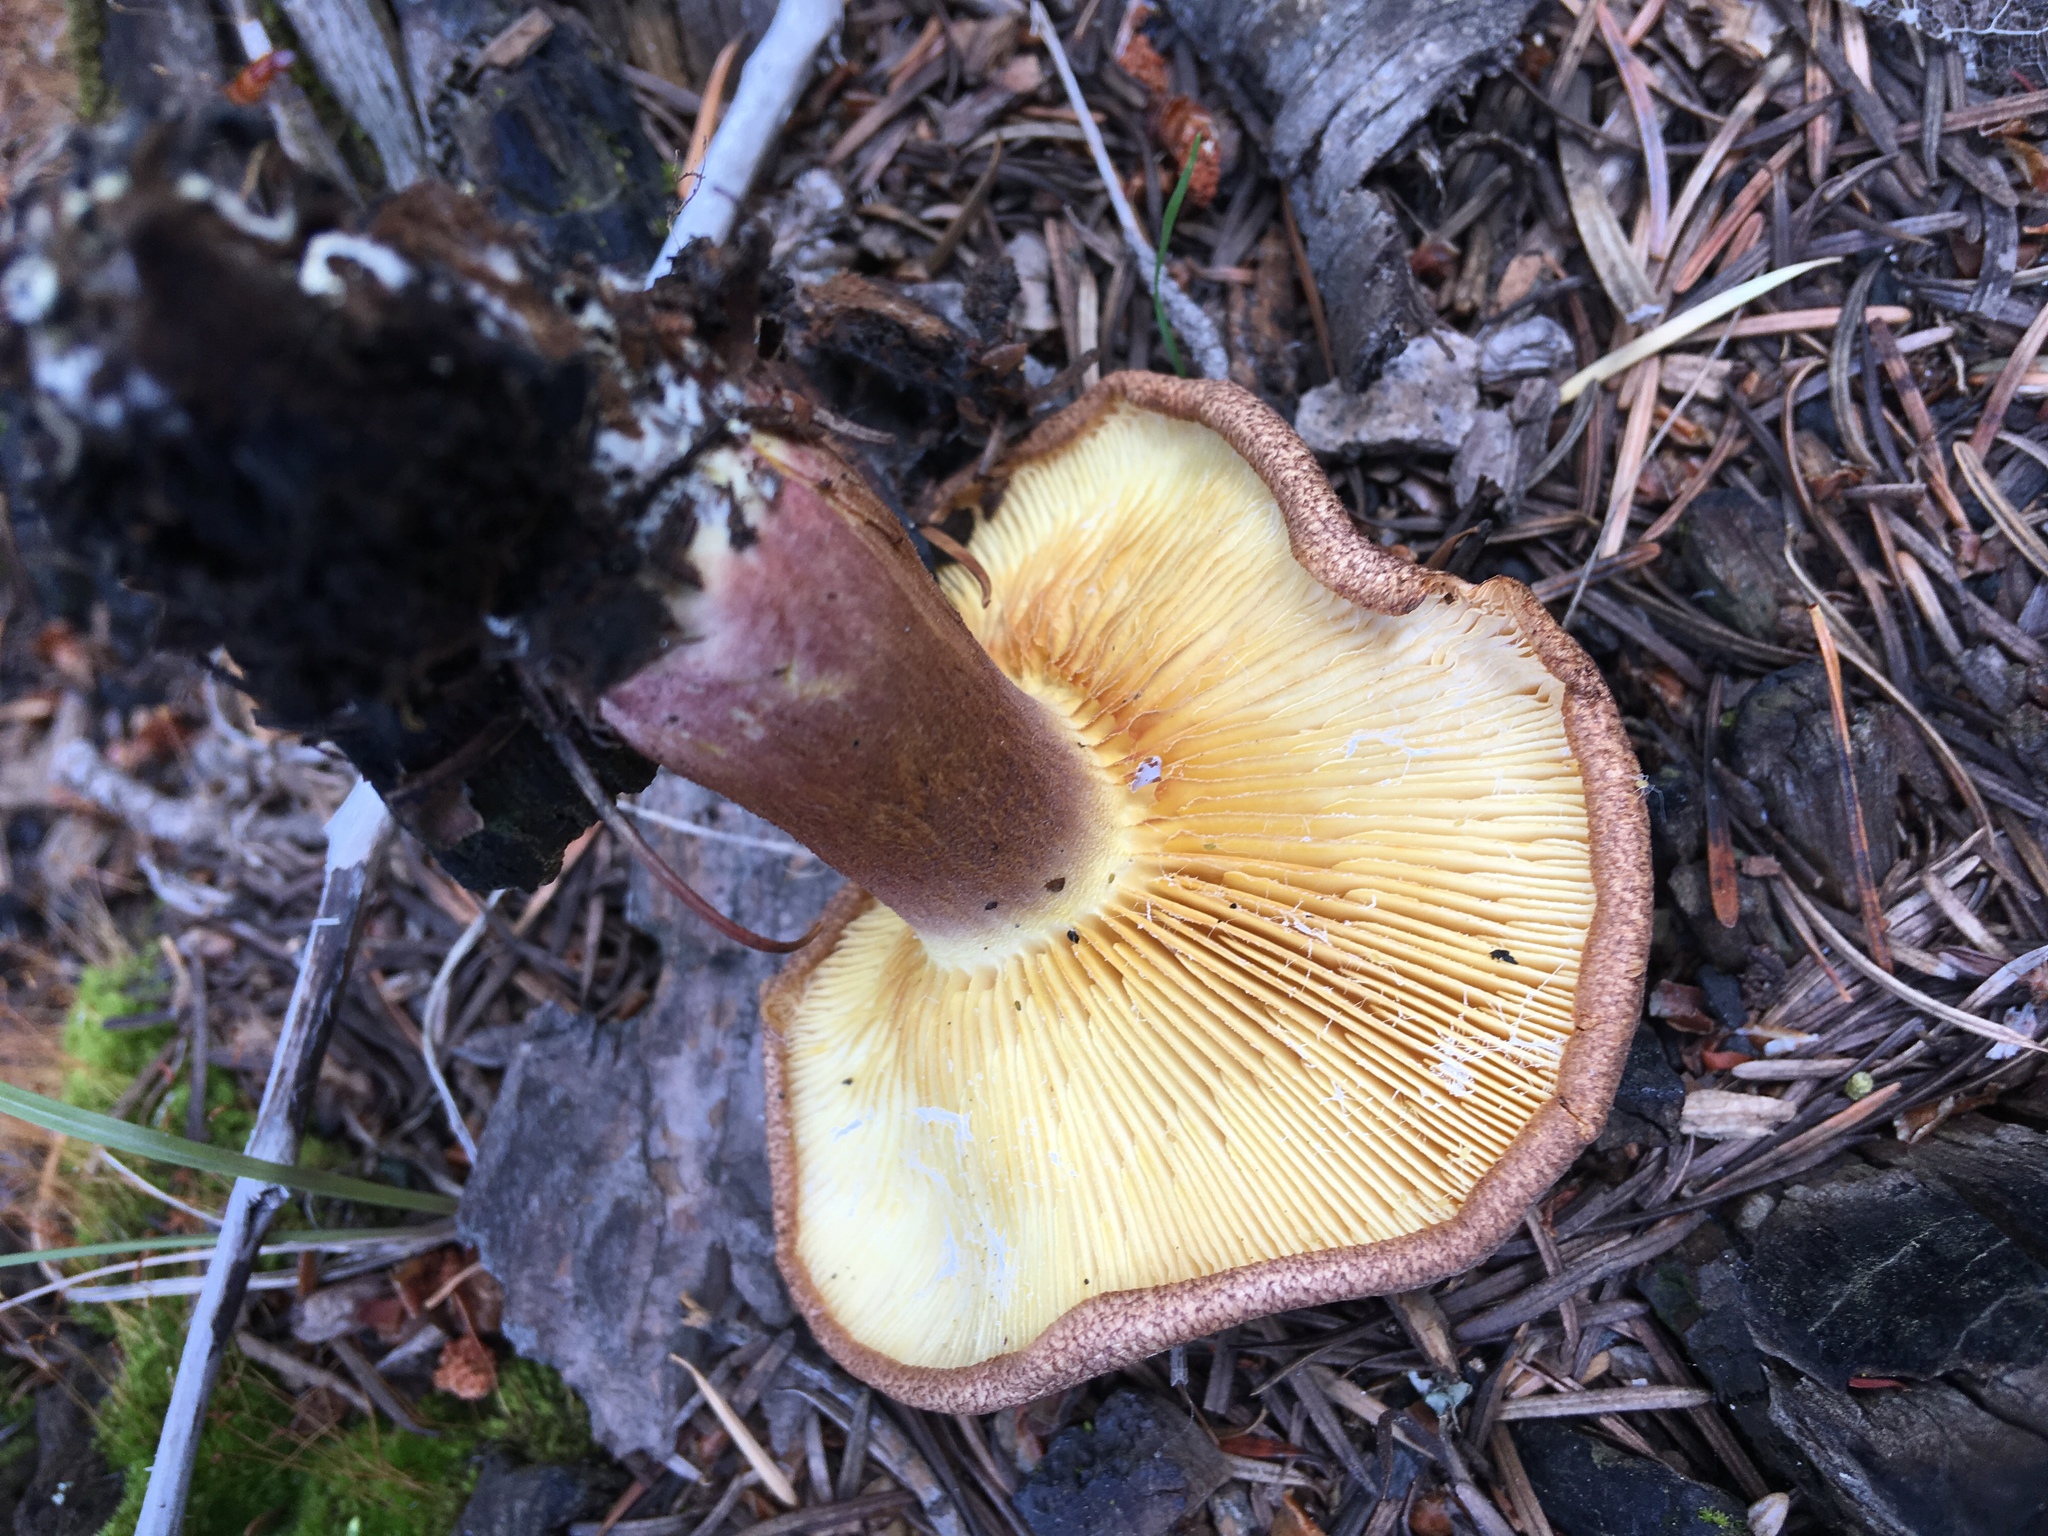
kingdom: Fungi
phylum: Basidiomycota
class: Agaricomycetes
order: Agaricales
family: Tricholomataceae
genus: Tricholomopsis
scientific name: Tricholomopsis rutilans
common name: Plums and custard
